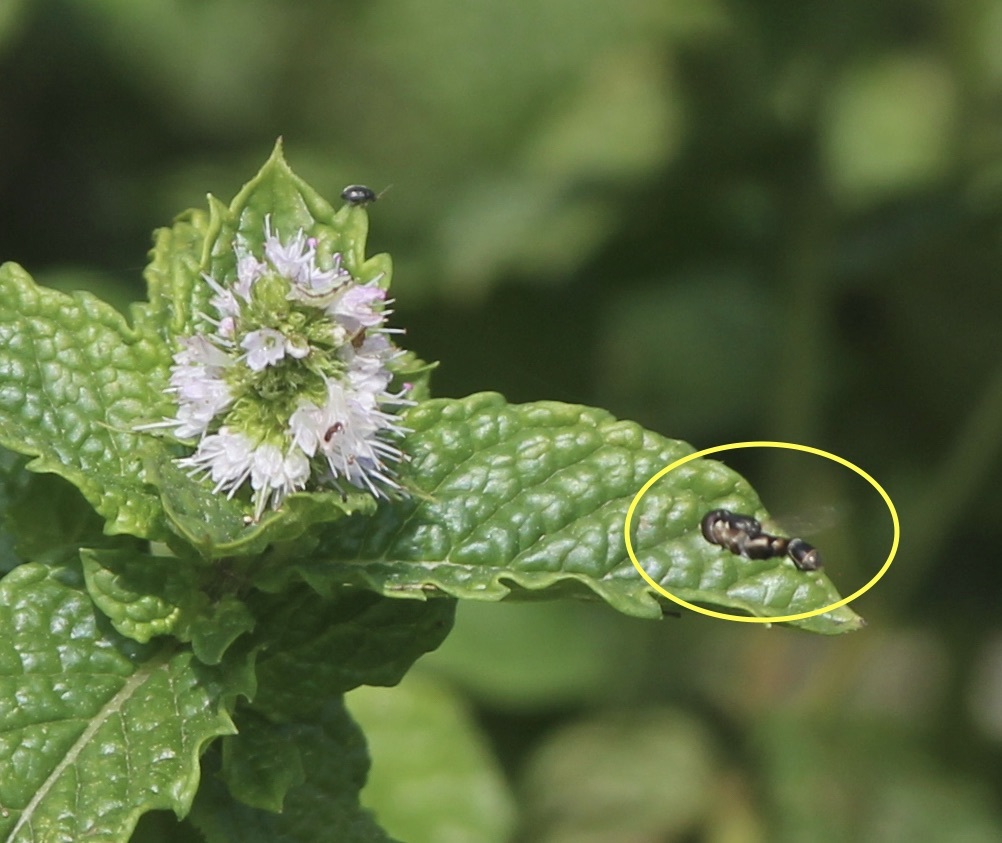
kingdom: Animalia
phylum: Arthropoda
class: Insecta
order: Diptera
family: Syrphidae
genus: Syritta
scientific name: Syritta pipiens
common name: Hover fly
